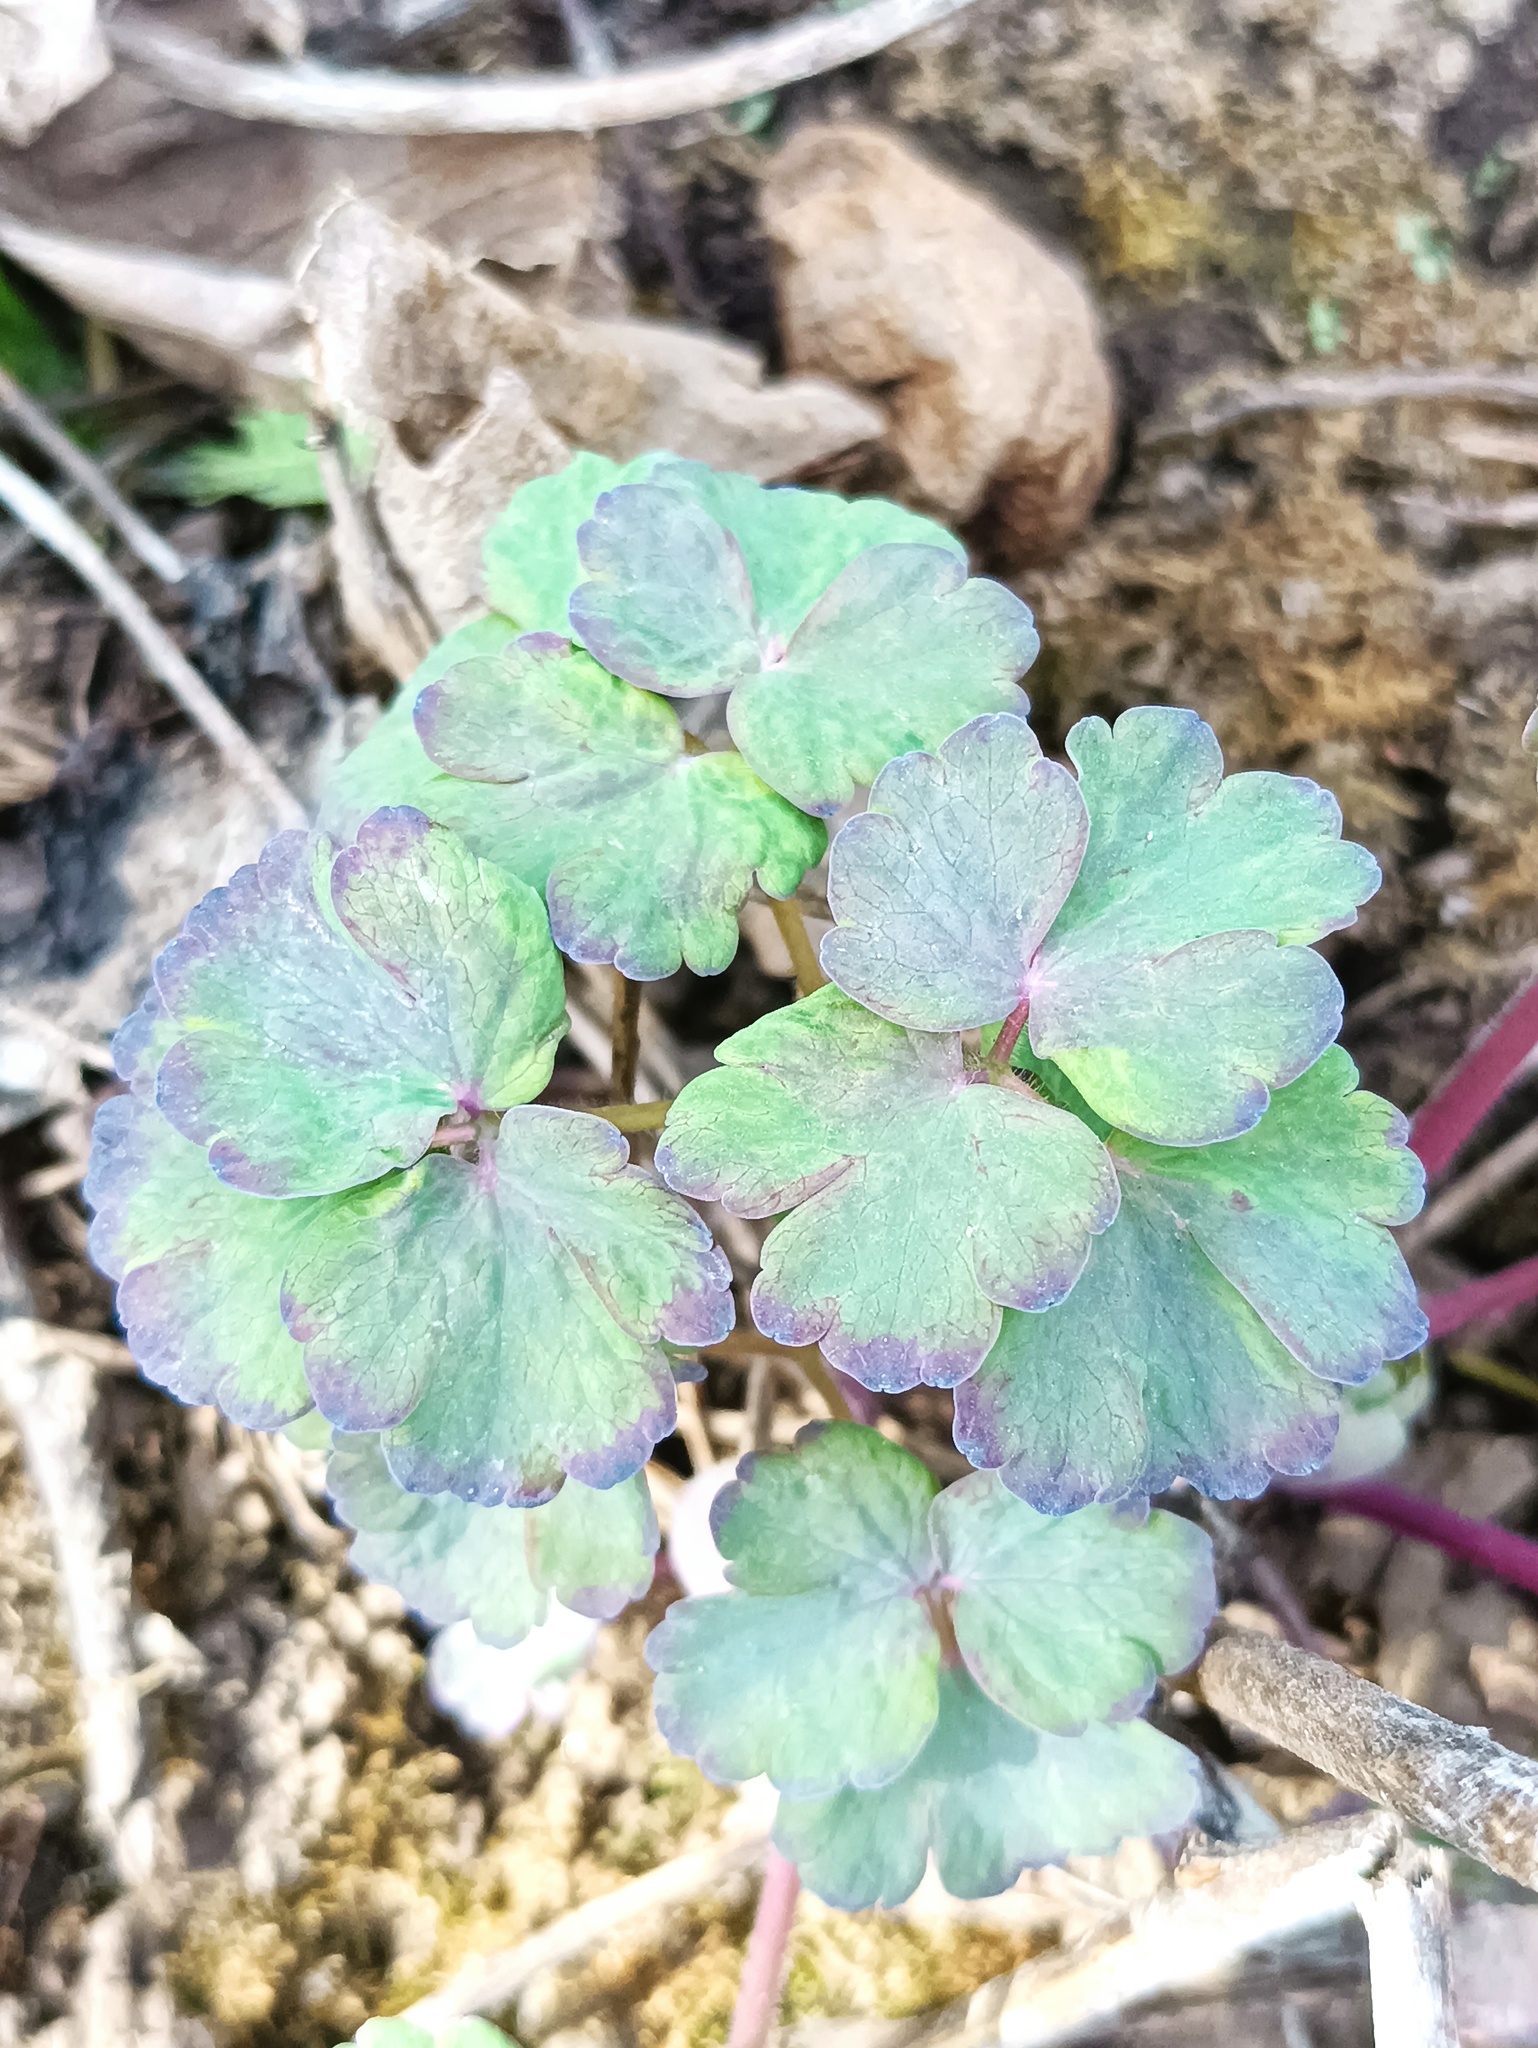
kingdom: Plantae
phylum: Tracheophyta
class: Magnoliopsida
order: Ranunculales
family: Ranunculaceae
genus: Aquilegia
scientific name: Aquilegia vulgaris
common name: Columbine
